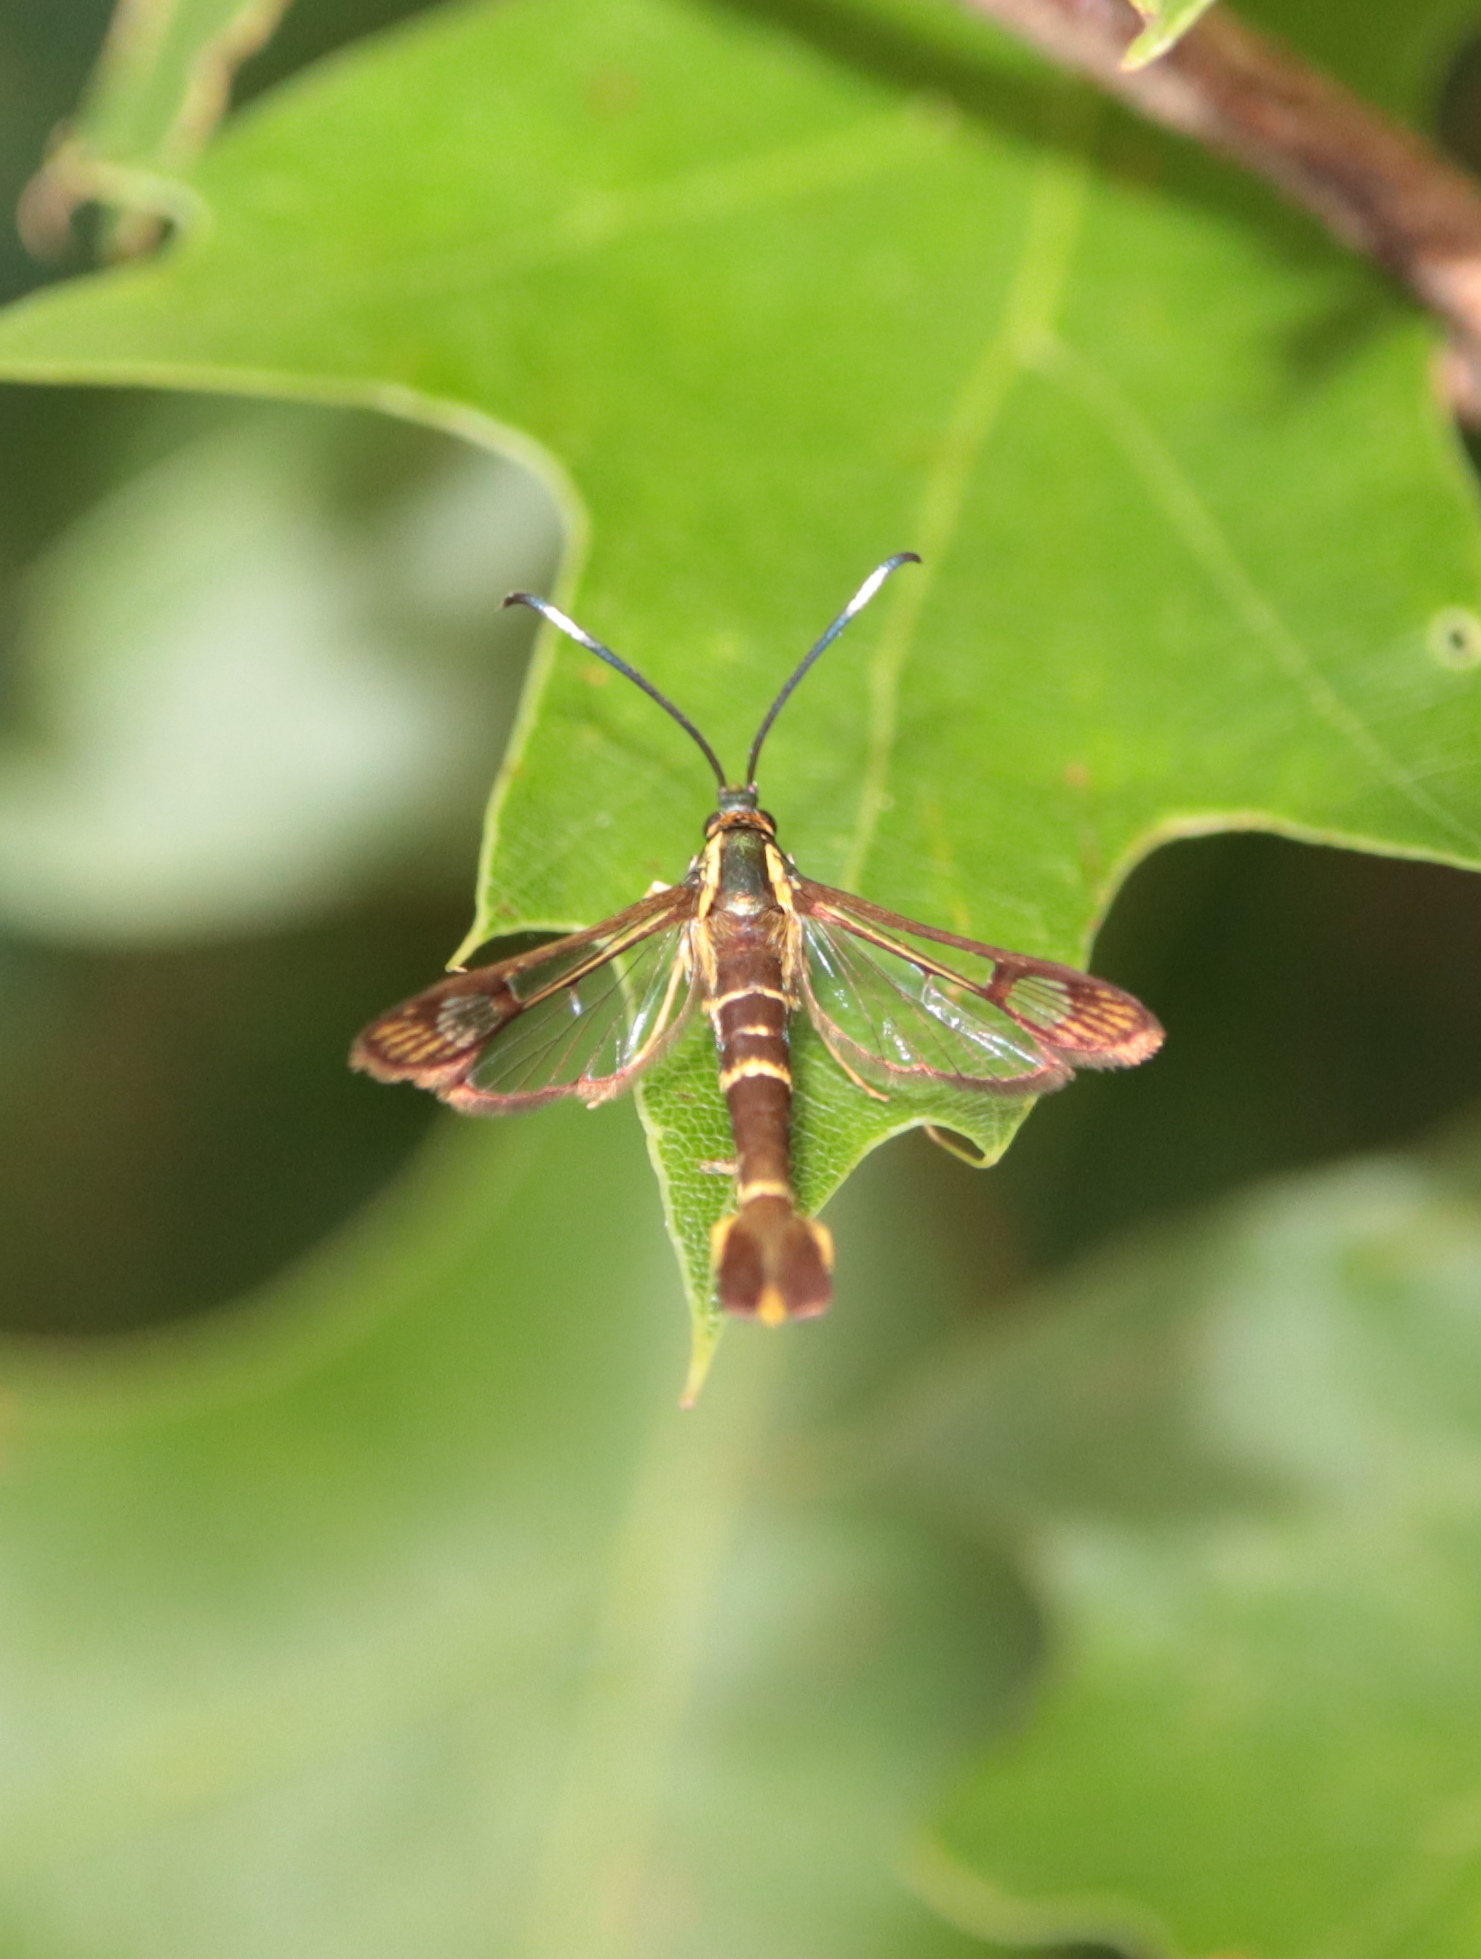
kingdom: Animalia
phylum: Arthropoda
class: Insecta
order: Lepidoptera
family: Sesiidae
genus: Carmenta
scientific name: Carmenta bassiformis
